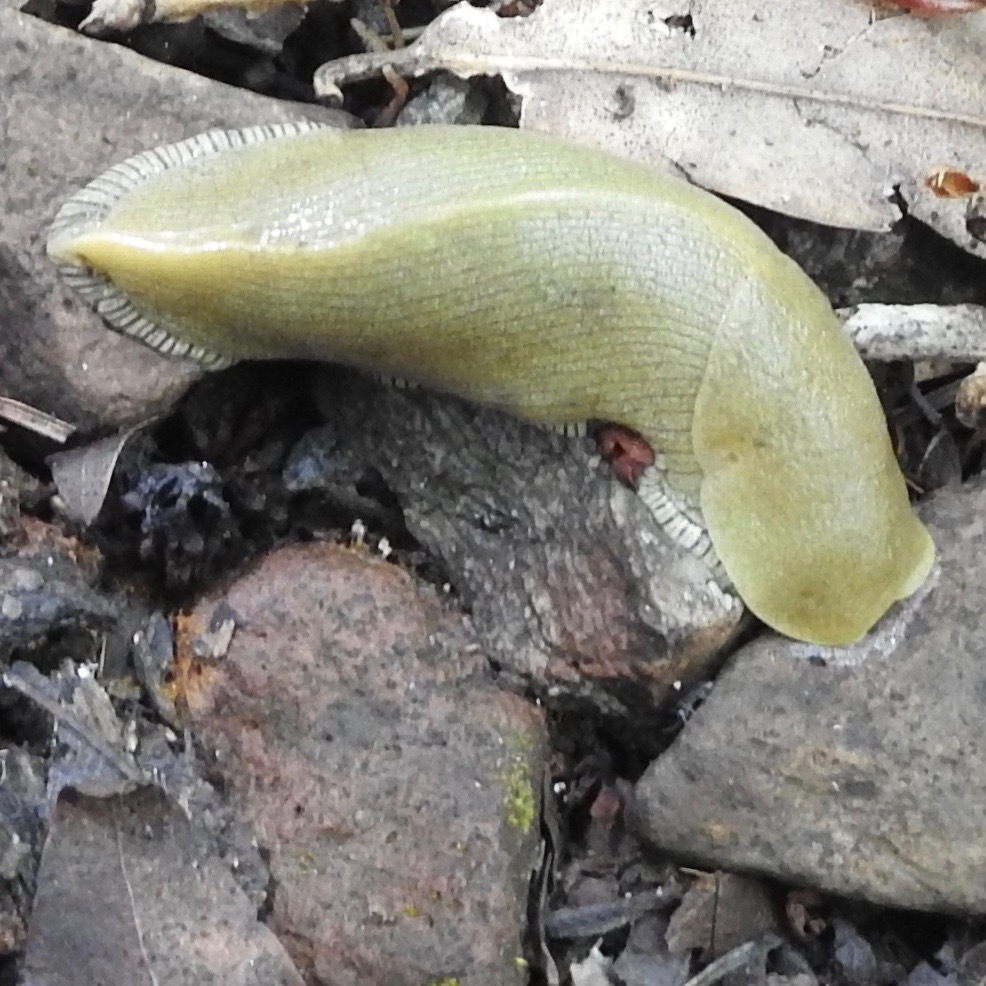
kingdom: Animalia
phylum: Mollusca
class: Gastropoda
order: Stylommatophora
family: Ariolimacidae
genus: Ariolimax
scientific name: Ariolimax buttoni
